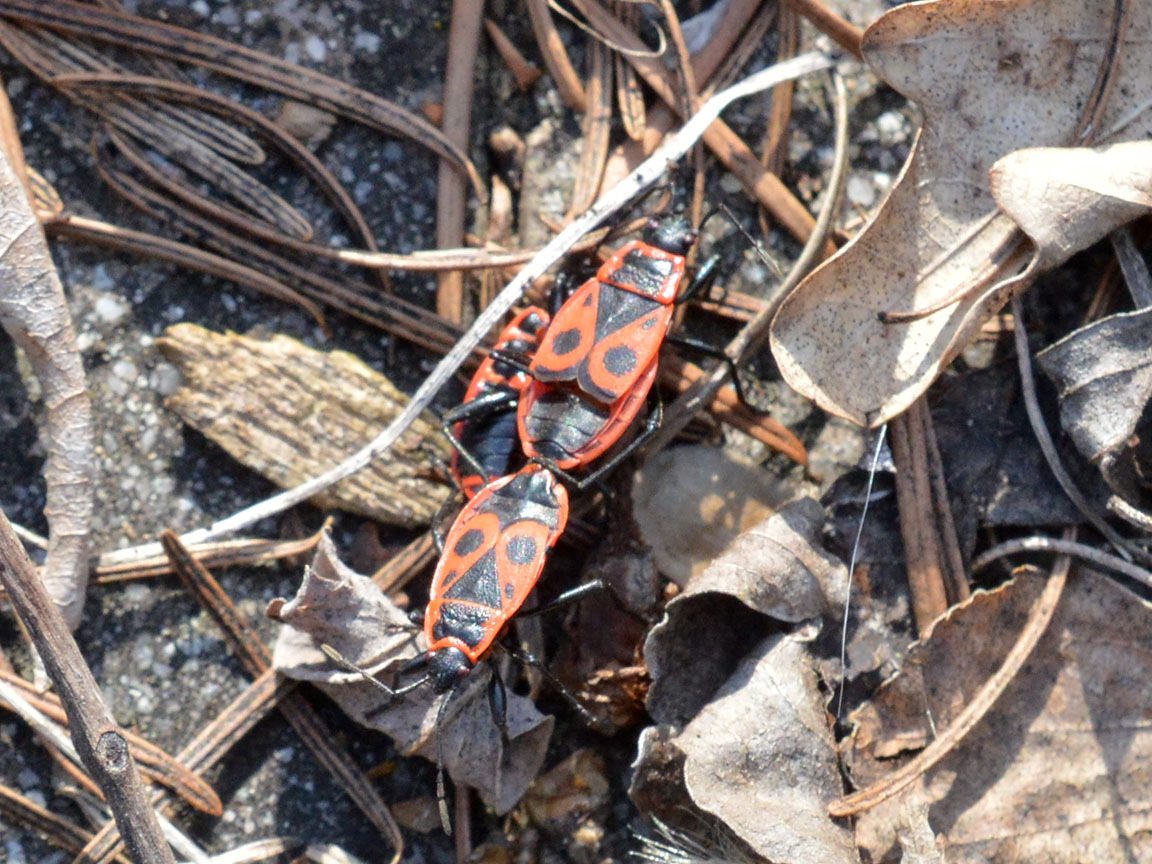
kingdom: Animalia
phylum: Arthropoda
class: Insecta
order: Hemiptera
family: Pyrrhocoridae
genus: Pyrrhocoris
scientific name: Pyrrhocoris apterus
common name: Firebug
